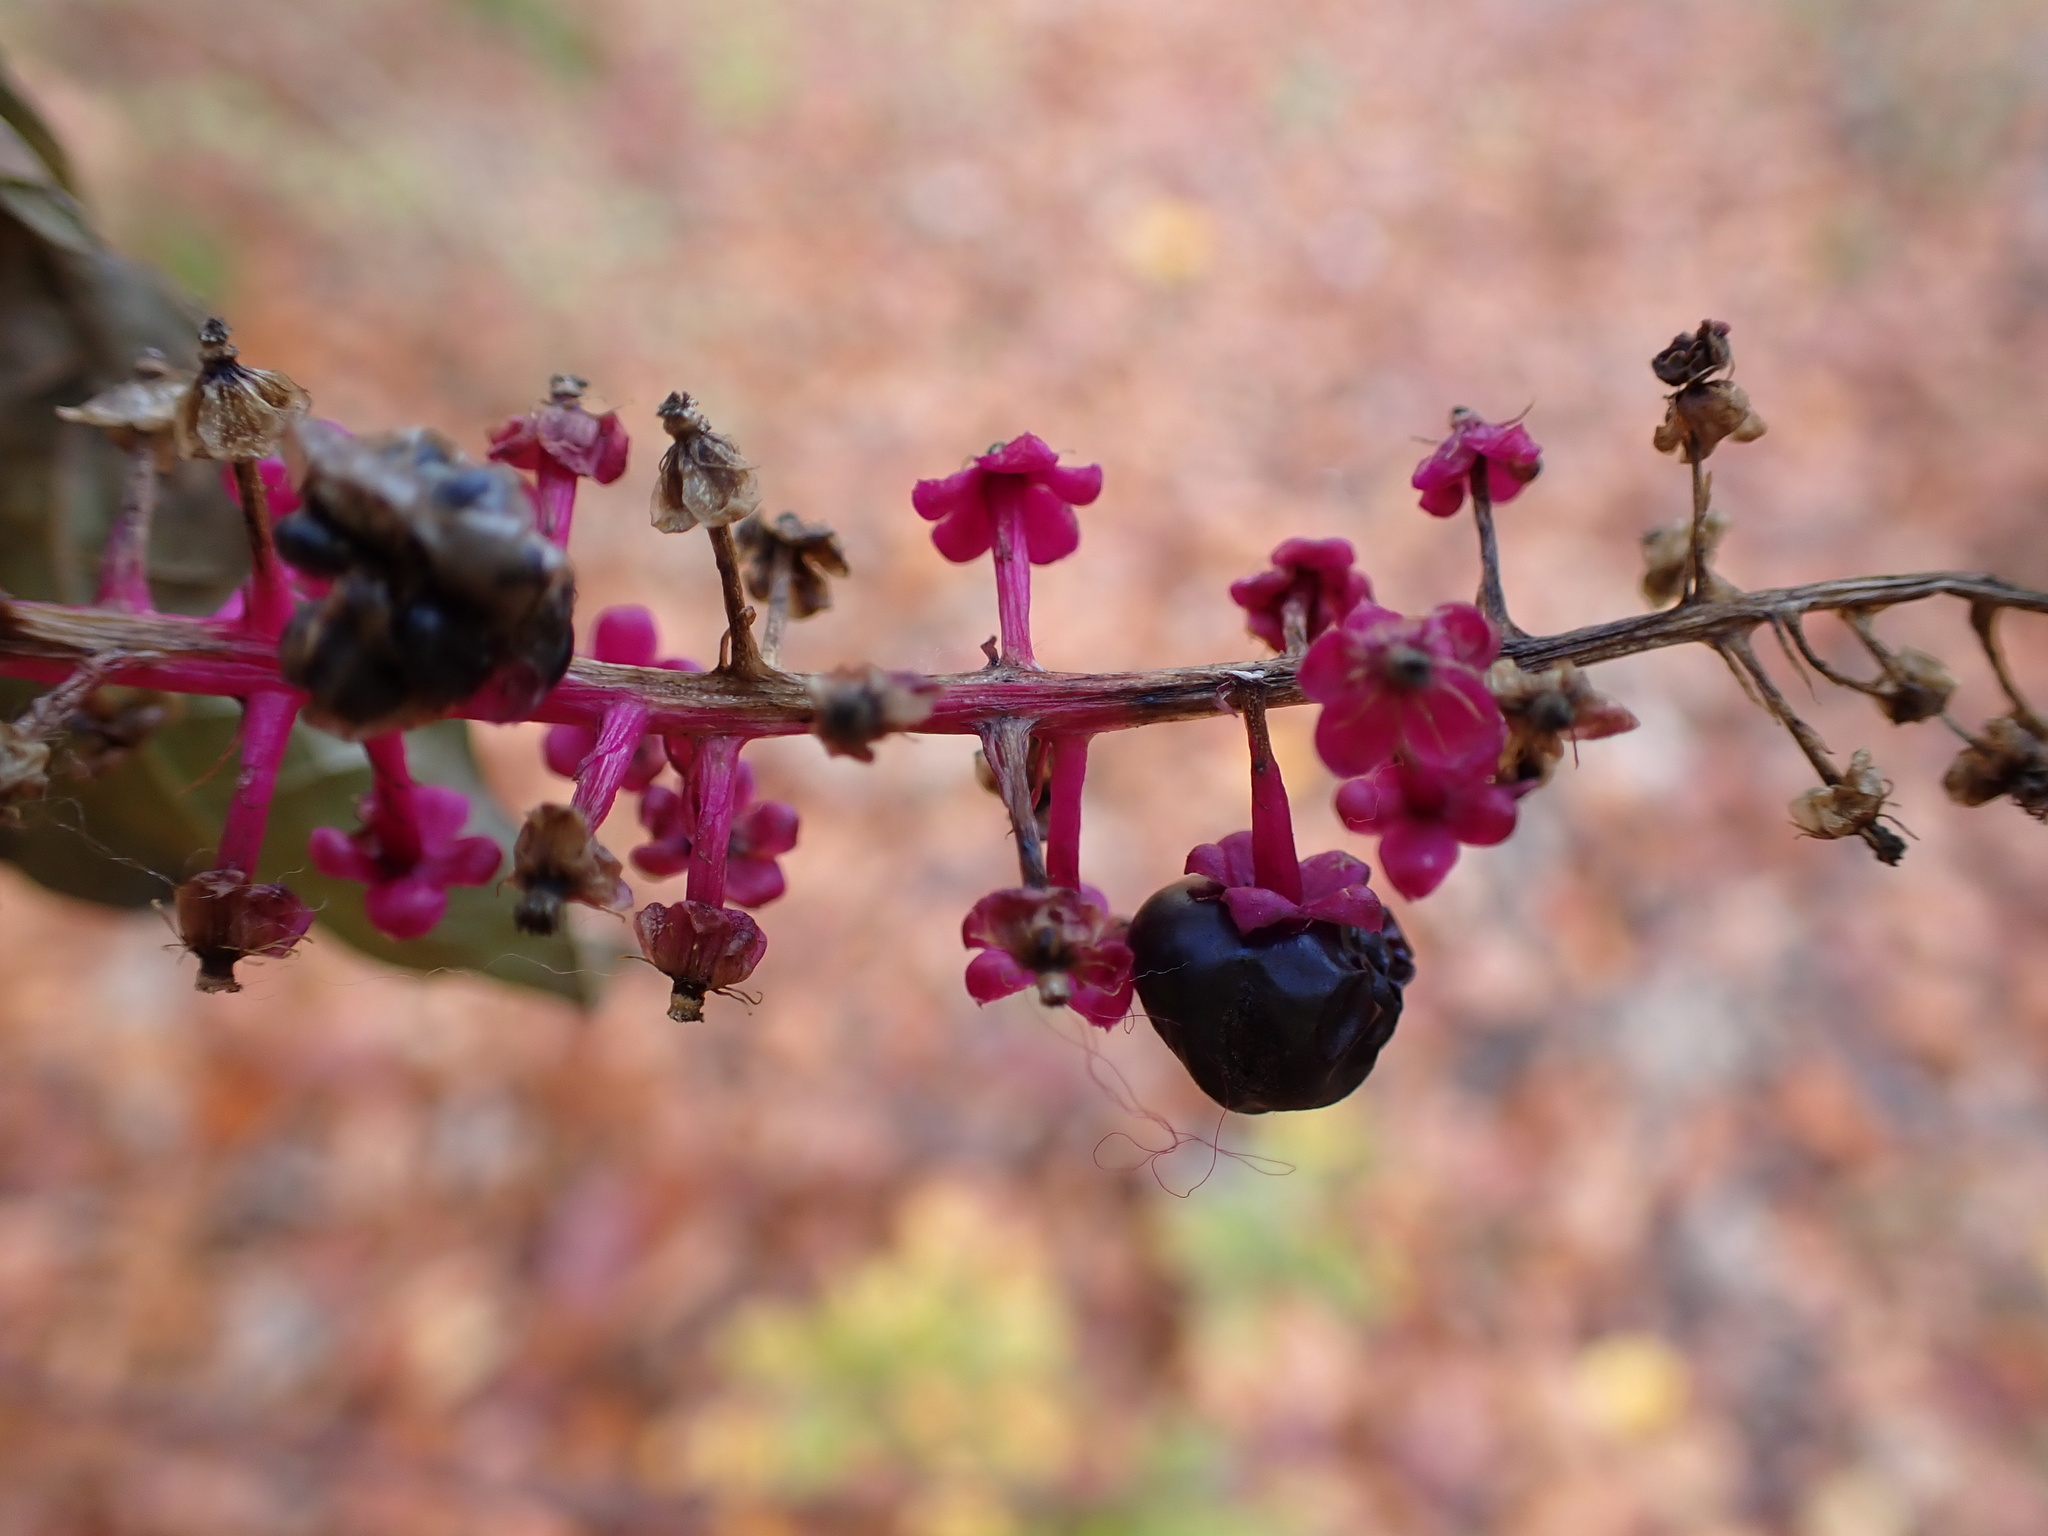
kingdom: Plantae
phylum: Tracheophyta
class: Magnoliopsida
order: Caryophyllales
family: Phytolaccaceae
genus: Phytolacca
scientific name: Phytolacca americana
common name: American pokeweed
